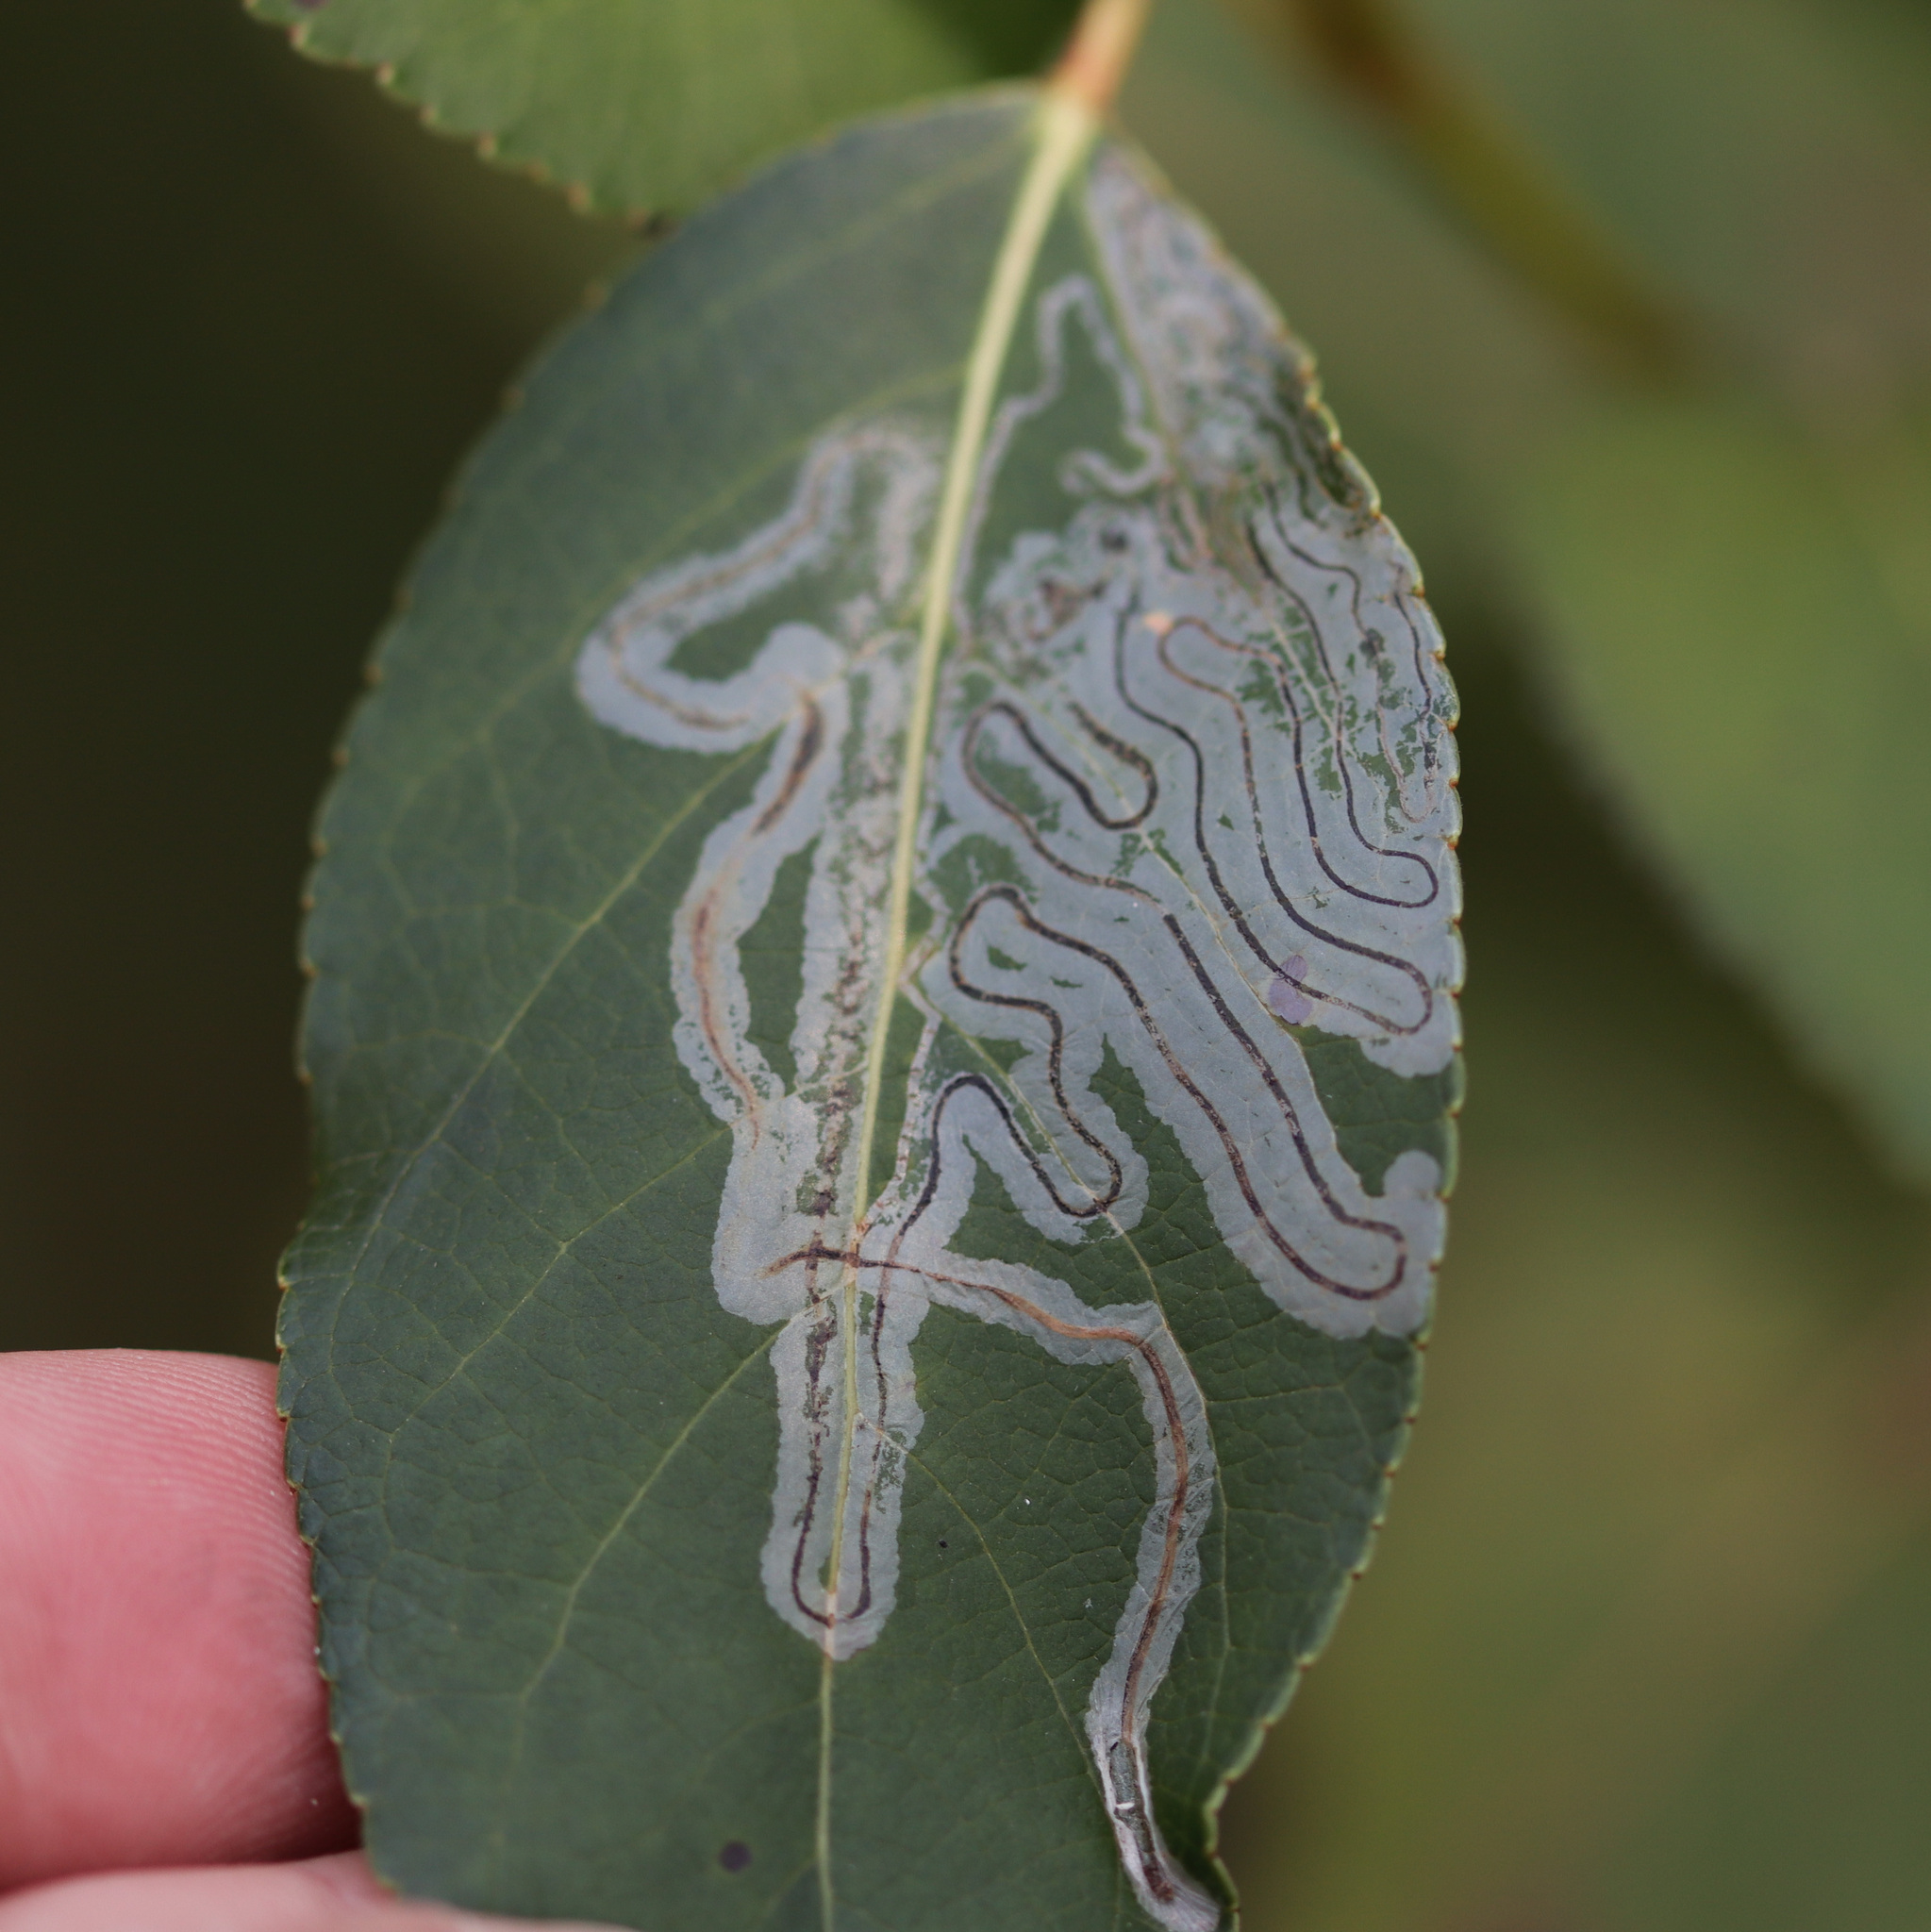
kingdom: Animalia
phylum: Arthropoda
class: Insecta
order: Lepidoptera
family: Gracillariidae
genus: Phyllocnistis
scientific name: Phyllocnistis populiella
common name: Aspen serpentine leafminer moth
